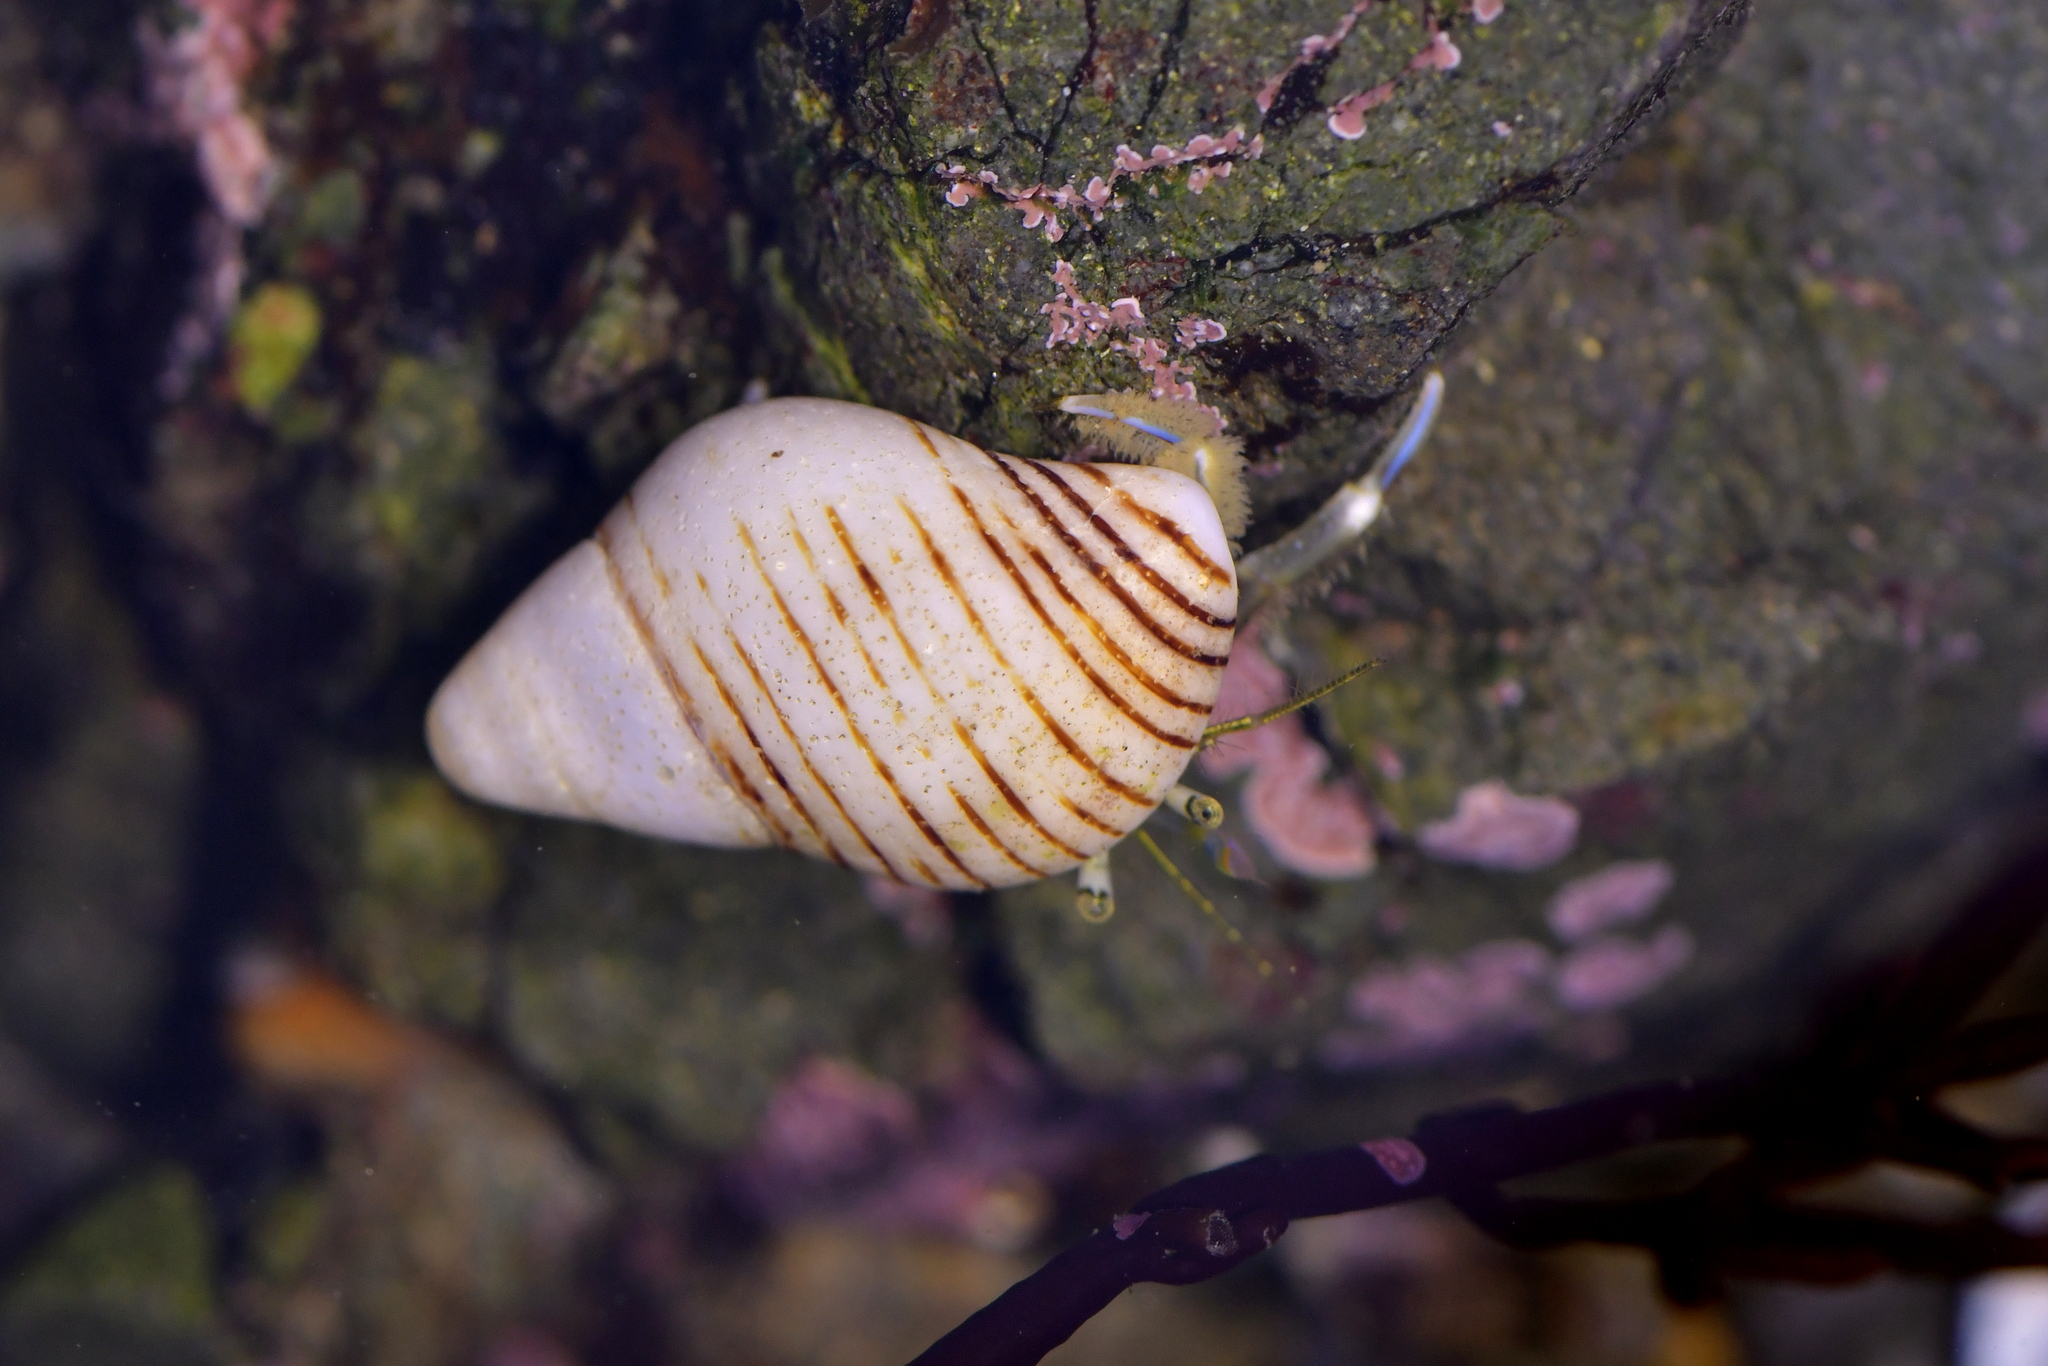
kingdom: Animalia
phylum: Arthropoda
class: Malacostraca
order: Decapoda
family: Paguridae
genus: Pagurus
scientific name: Pagurus novizealandiae
